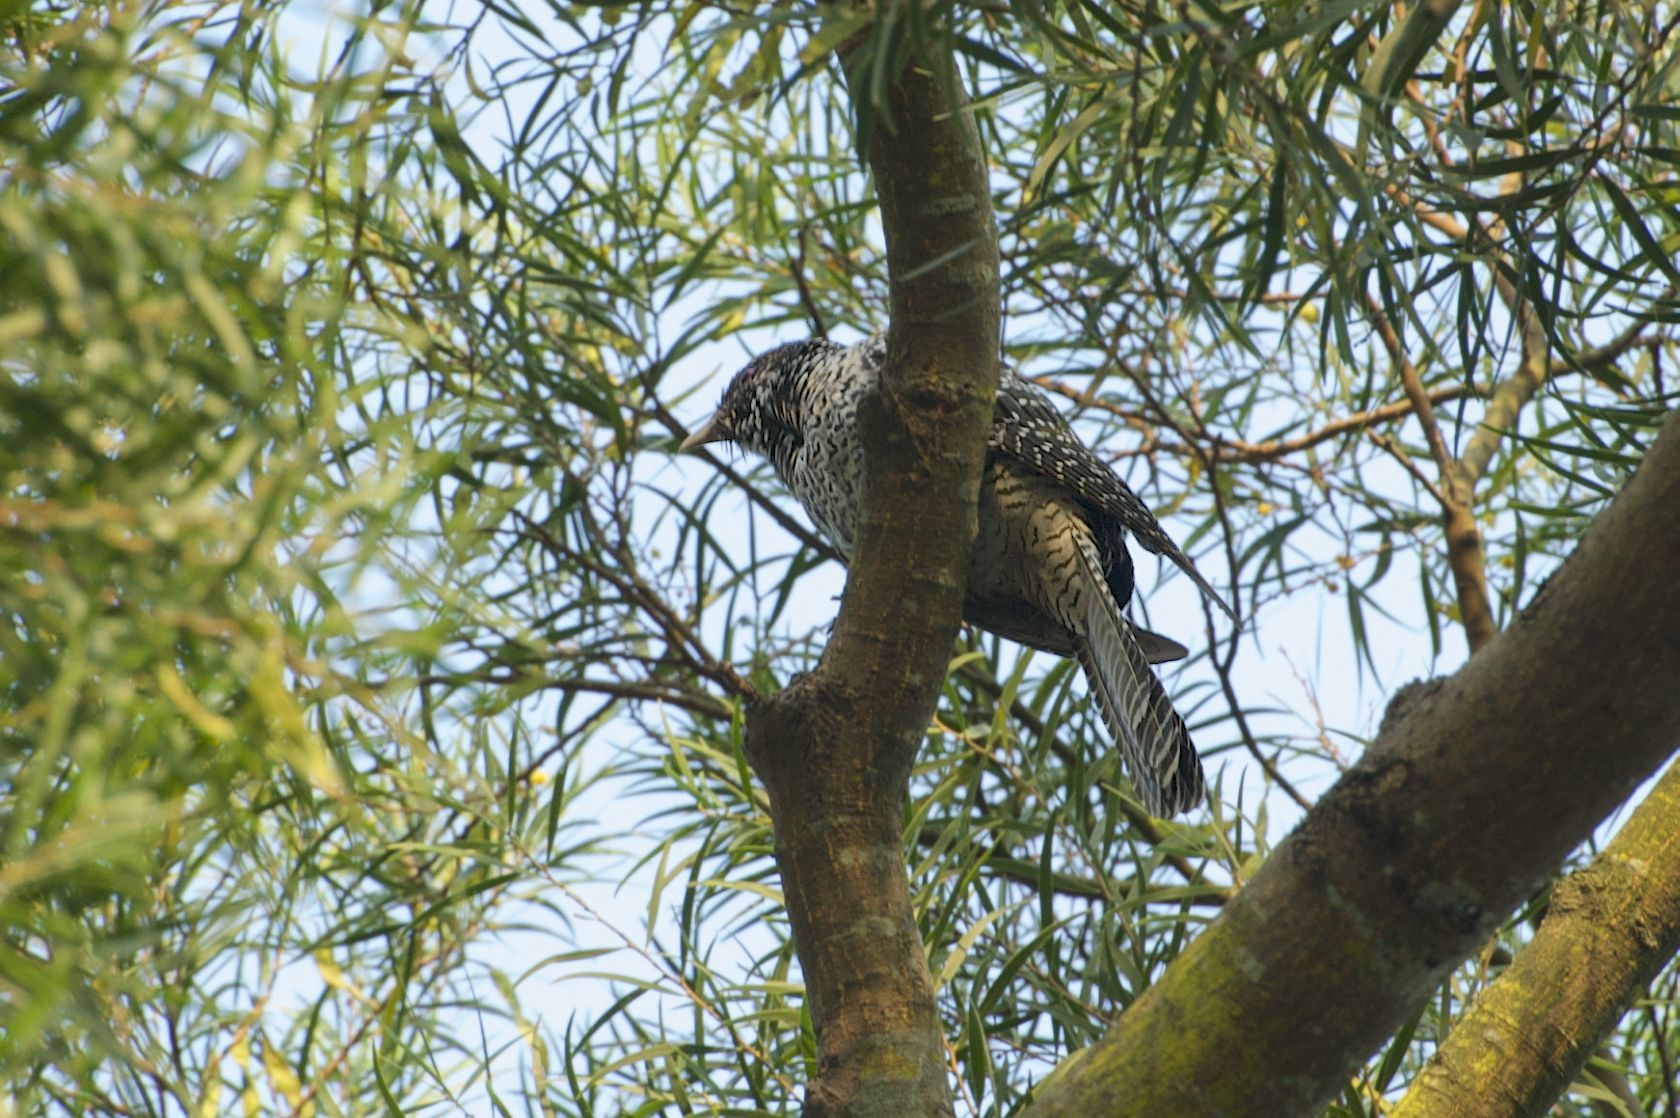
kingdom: Animalia
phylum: Chordata
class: Aves
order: Cuculiformes
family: Cuculidae
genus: Eudynamys
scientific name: Eudynamys scolopaceus
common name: Asian koel
